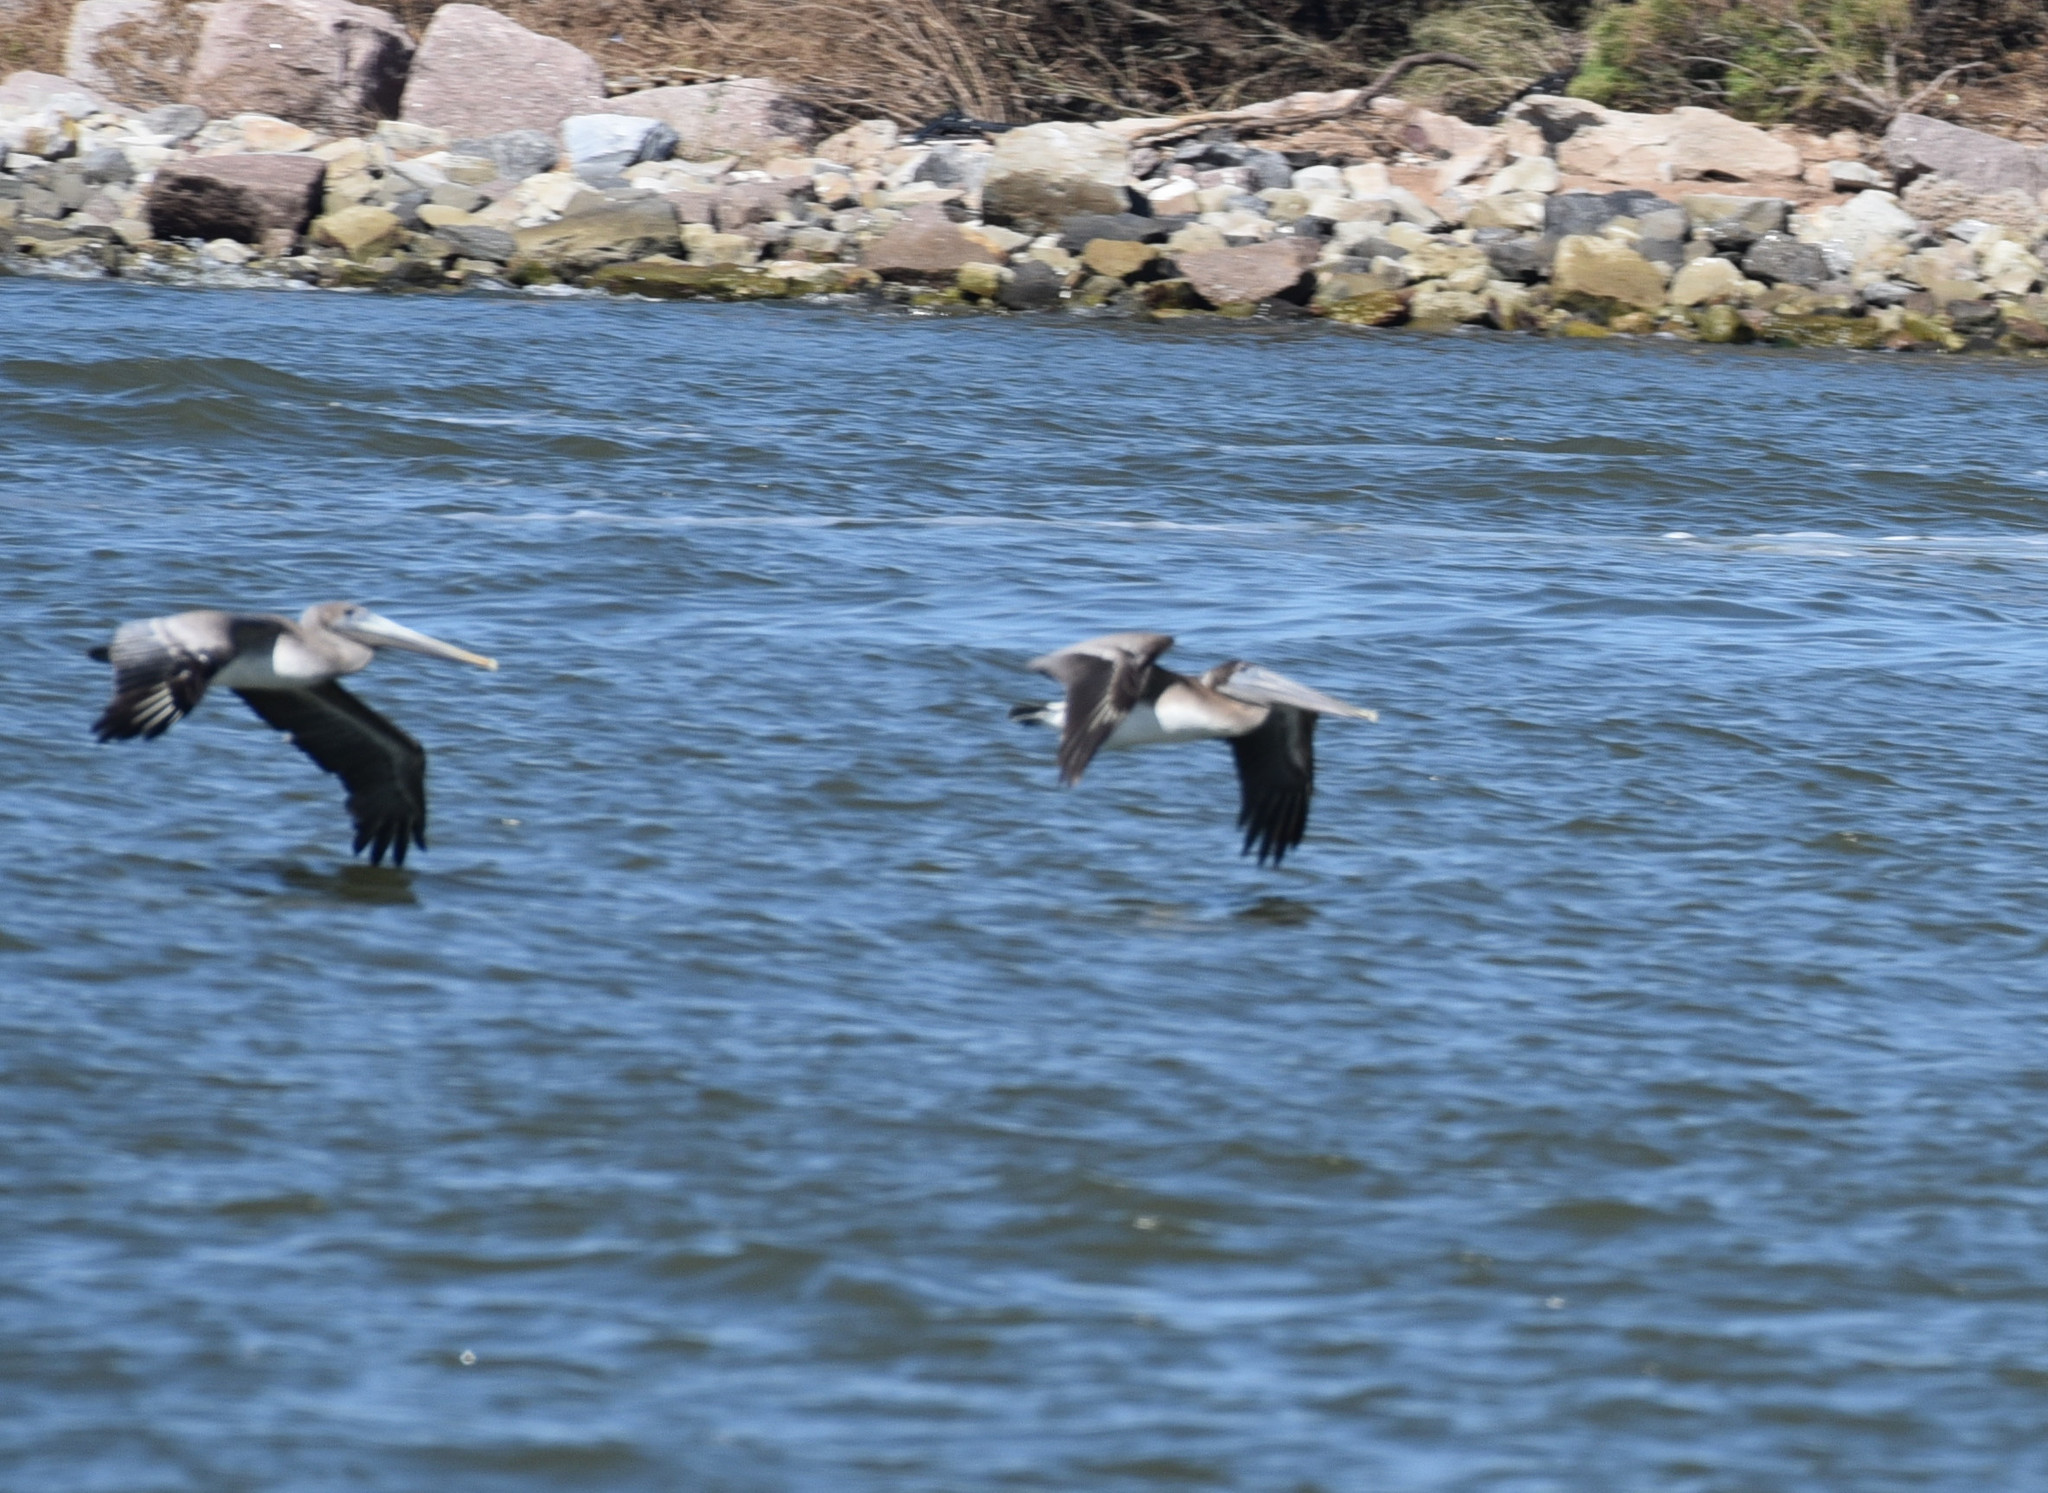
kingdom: Animalia
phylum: Chordata
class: Aves
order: Pelecaniformes
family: Pelecanidae
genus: Pelecanus
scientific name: Pelecanus occidentalis
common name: Brown pelican
